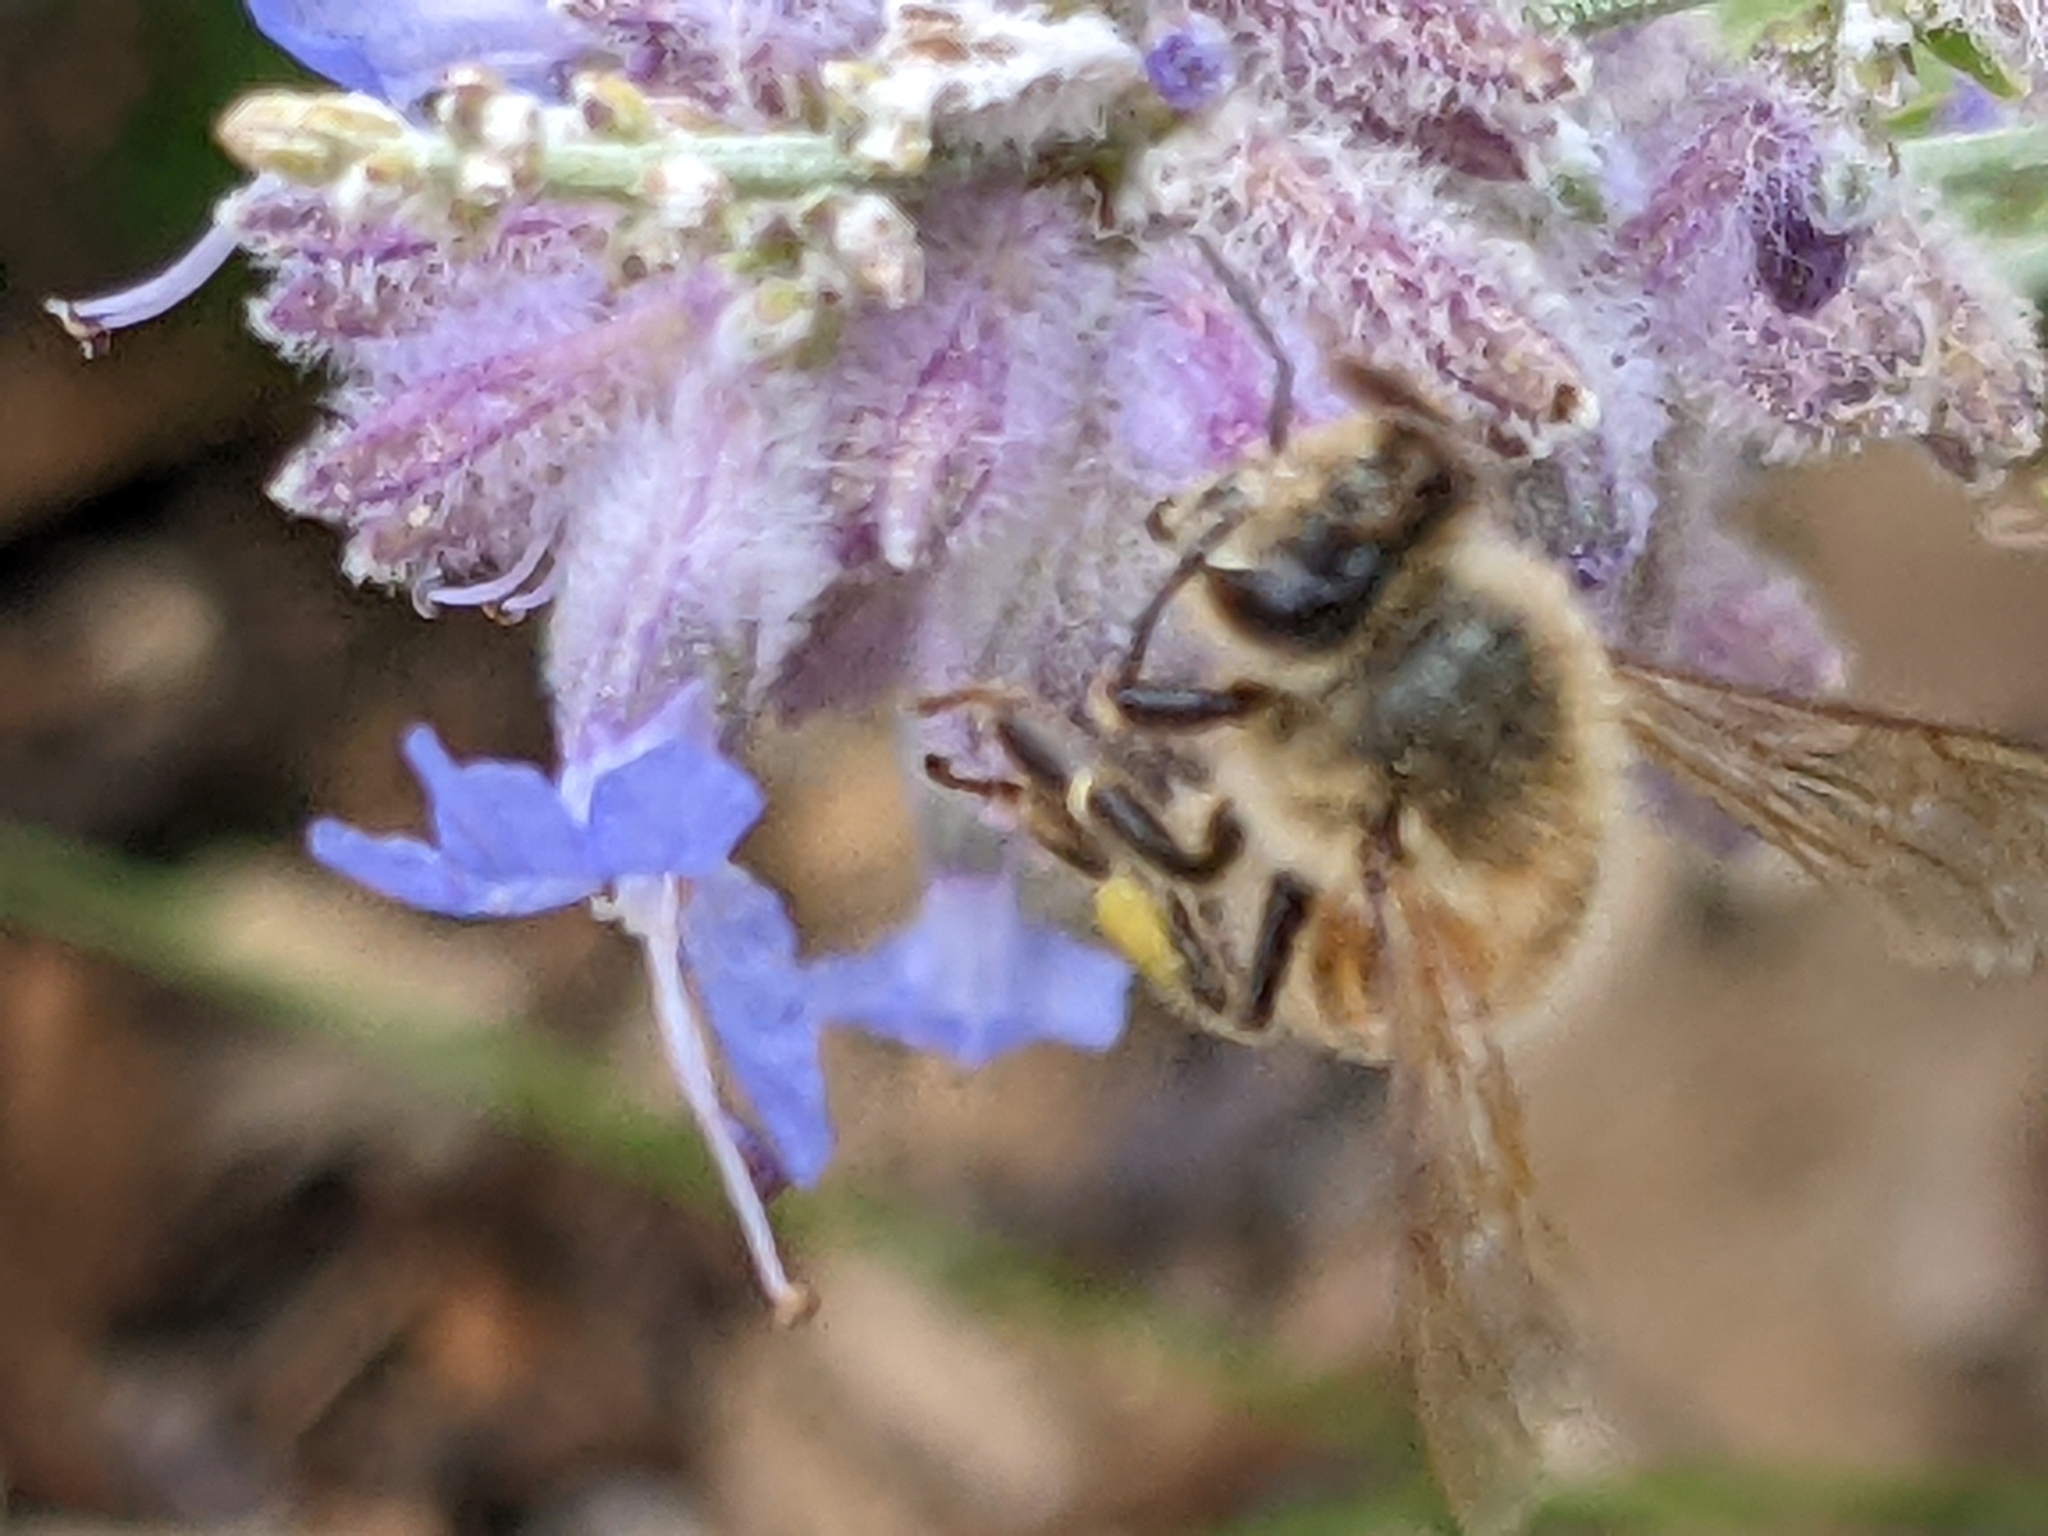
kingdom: Animalia
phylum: Arthropoda
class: Insecta
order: Hymenoptera
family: Apidae
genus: Apis
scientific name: Apis mellifera
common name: Honey bee
